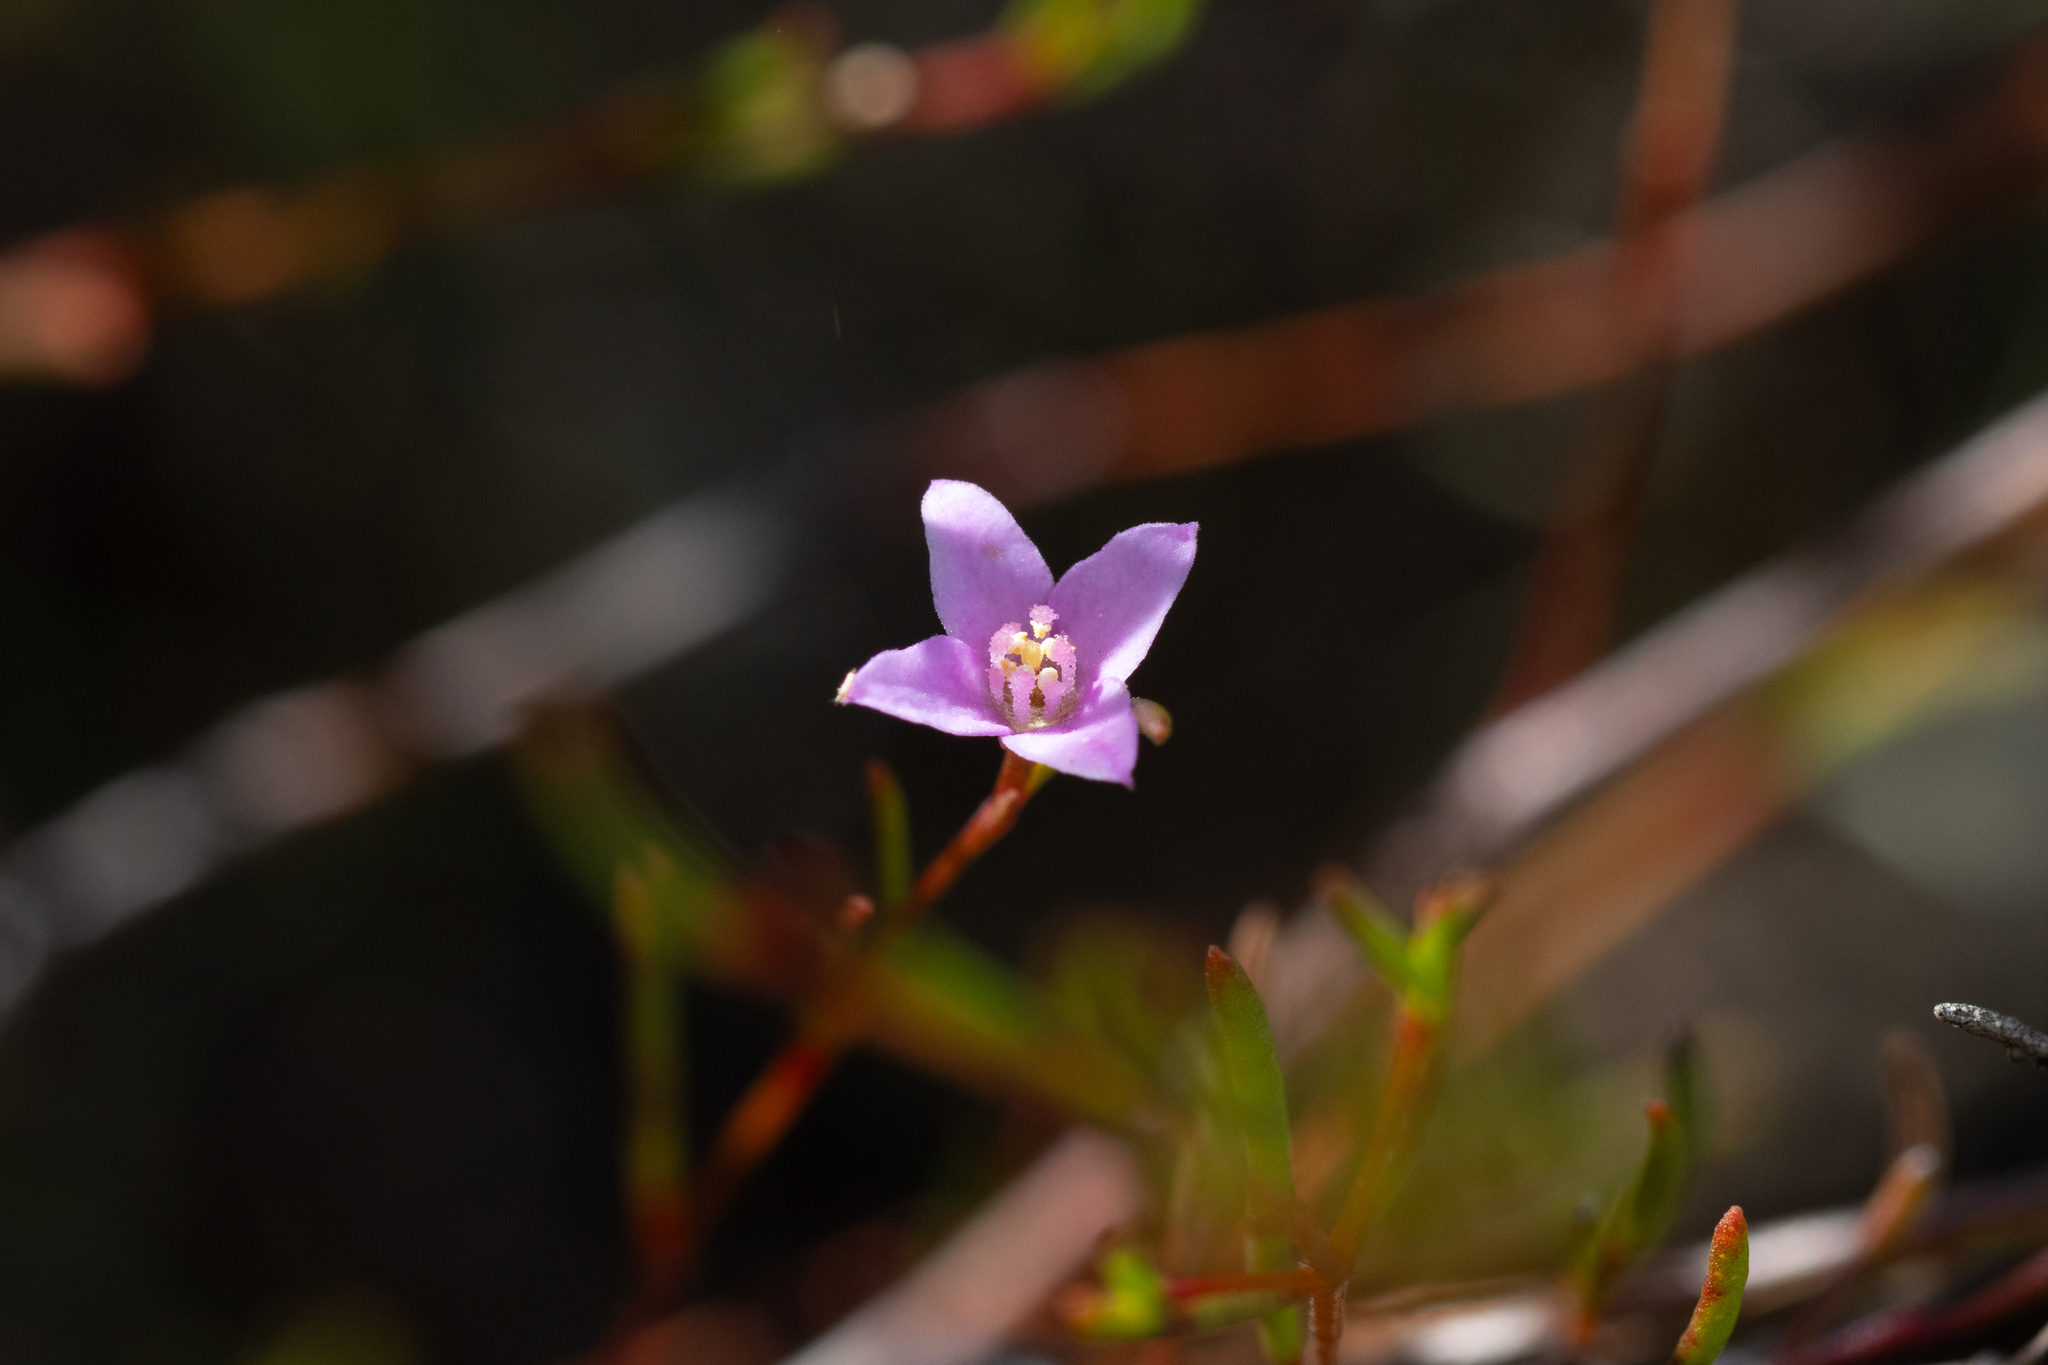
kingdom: Plantae
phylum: Tracheophyta
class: Magnoliopsida
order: Sapindales
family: Rutaceae
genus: Boronia
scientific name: Boronia filifolia
